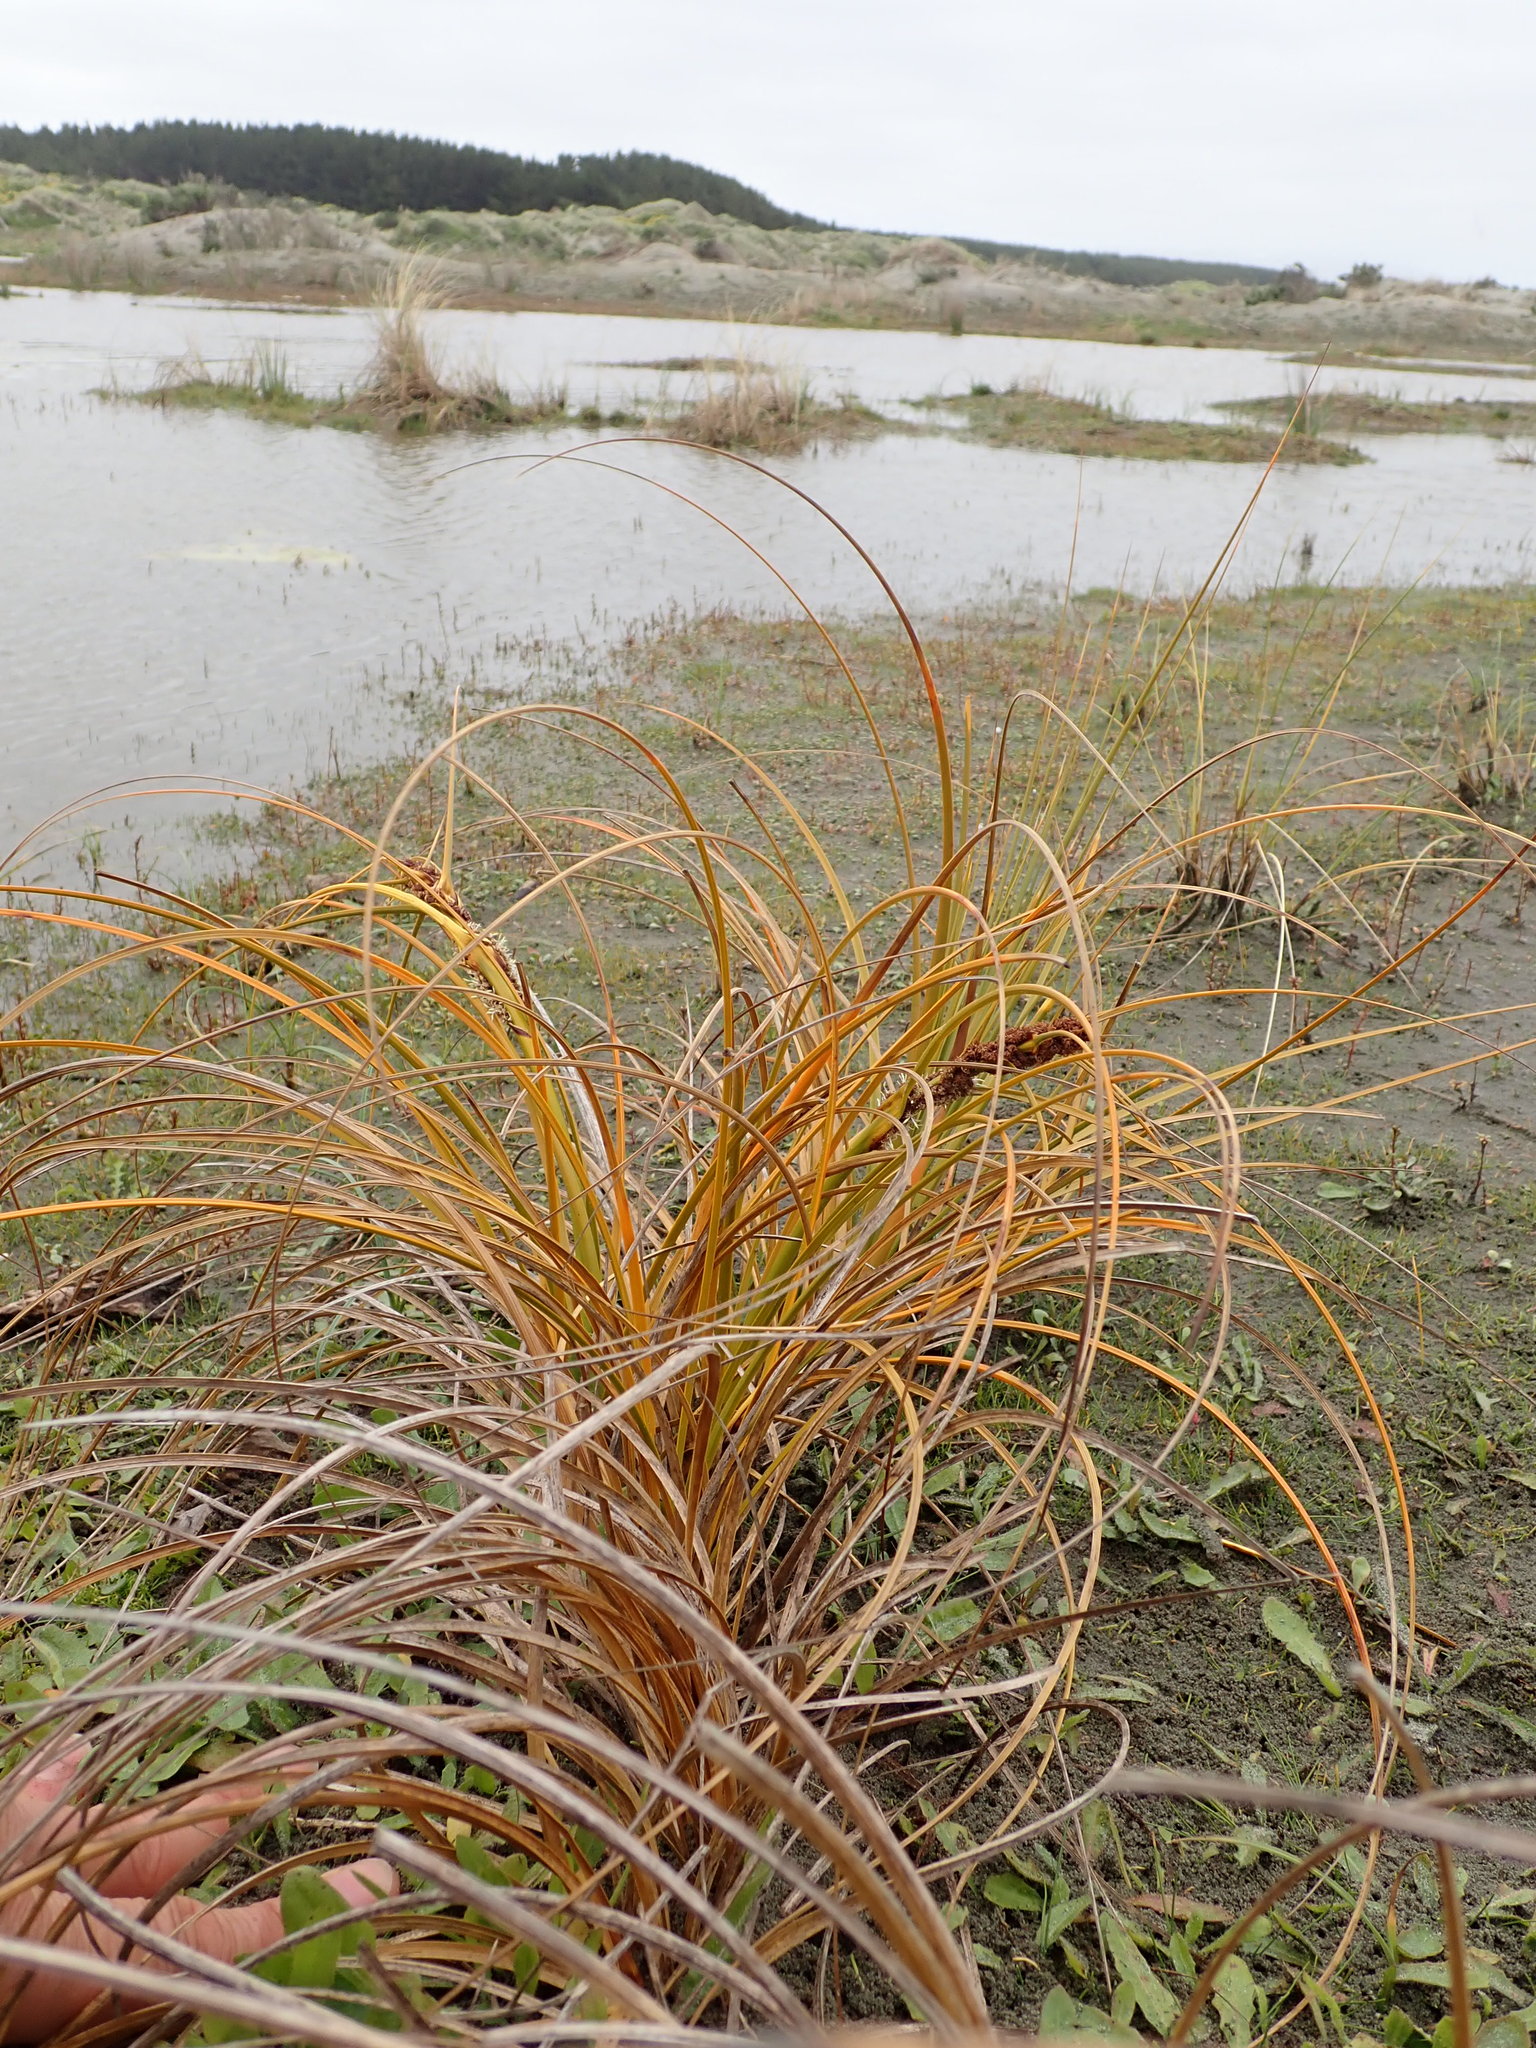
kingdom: Plantae
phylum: Tracheophyta
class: Liliopsida
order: Poales
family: Cyperaceae
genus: Ficinia
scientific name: Ficinia spiralis
